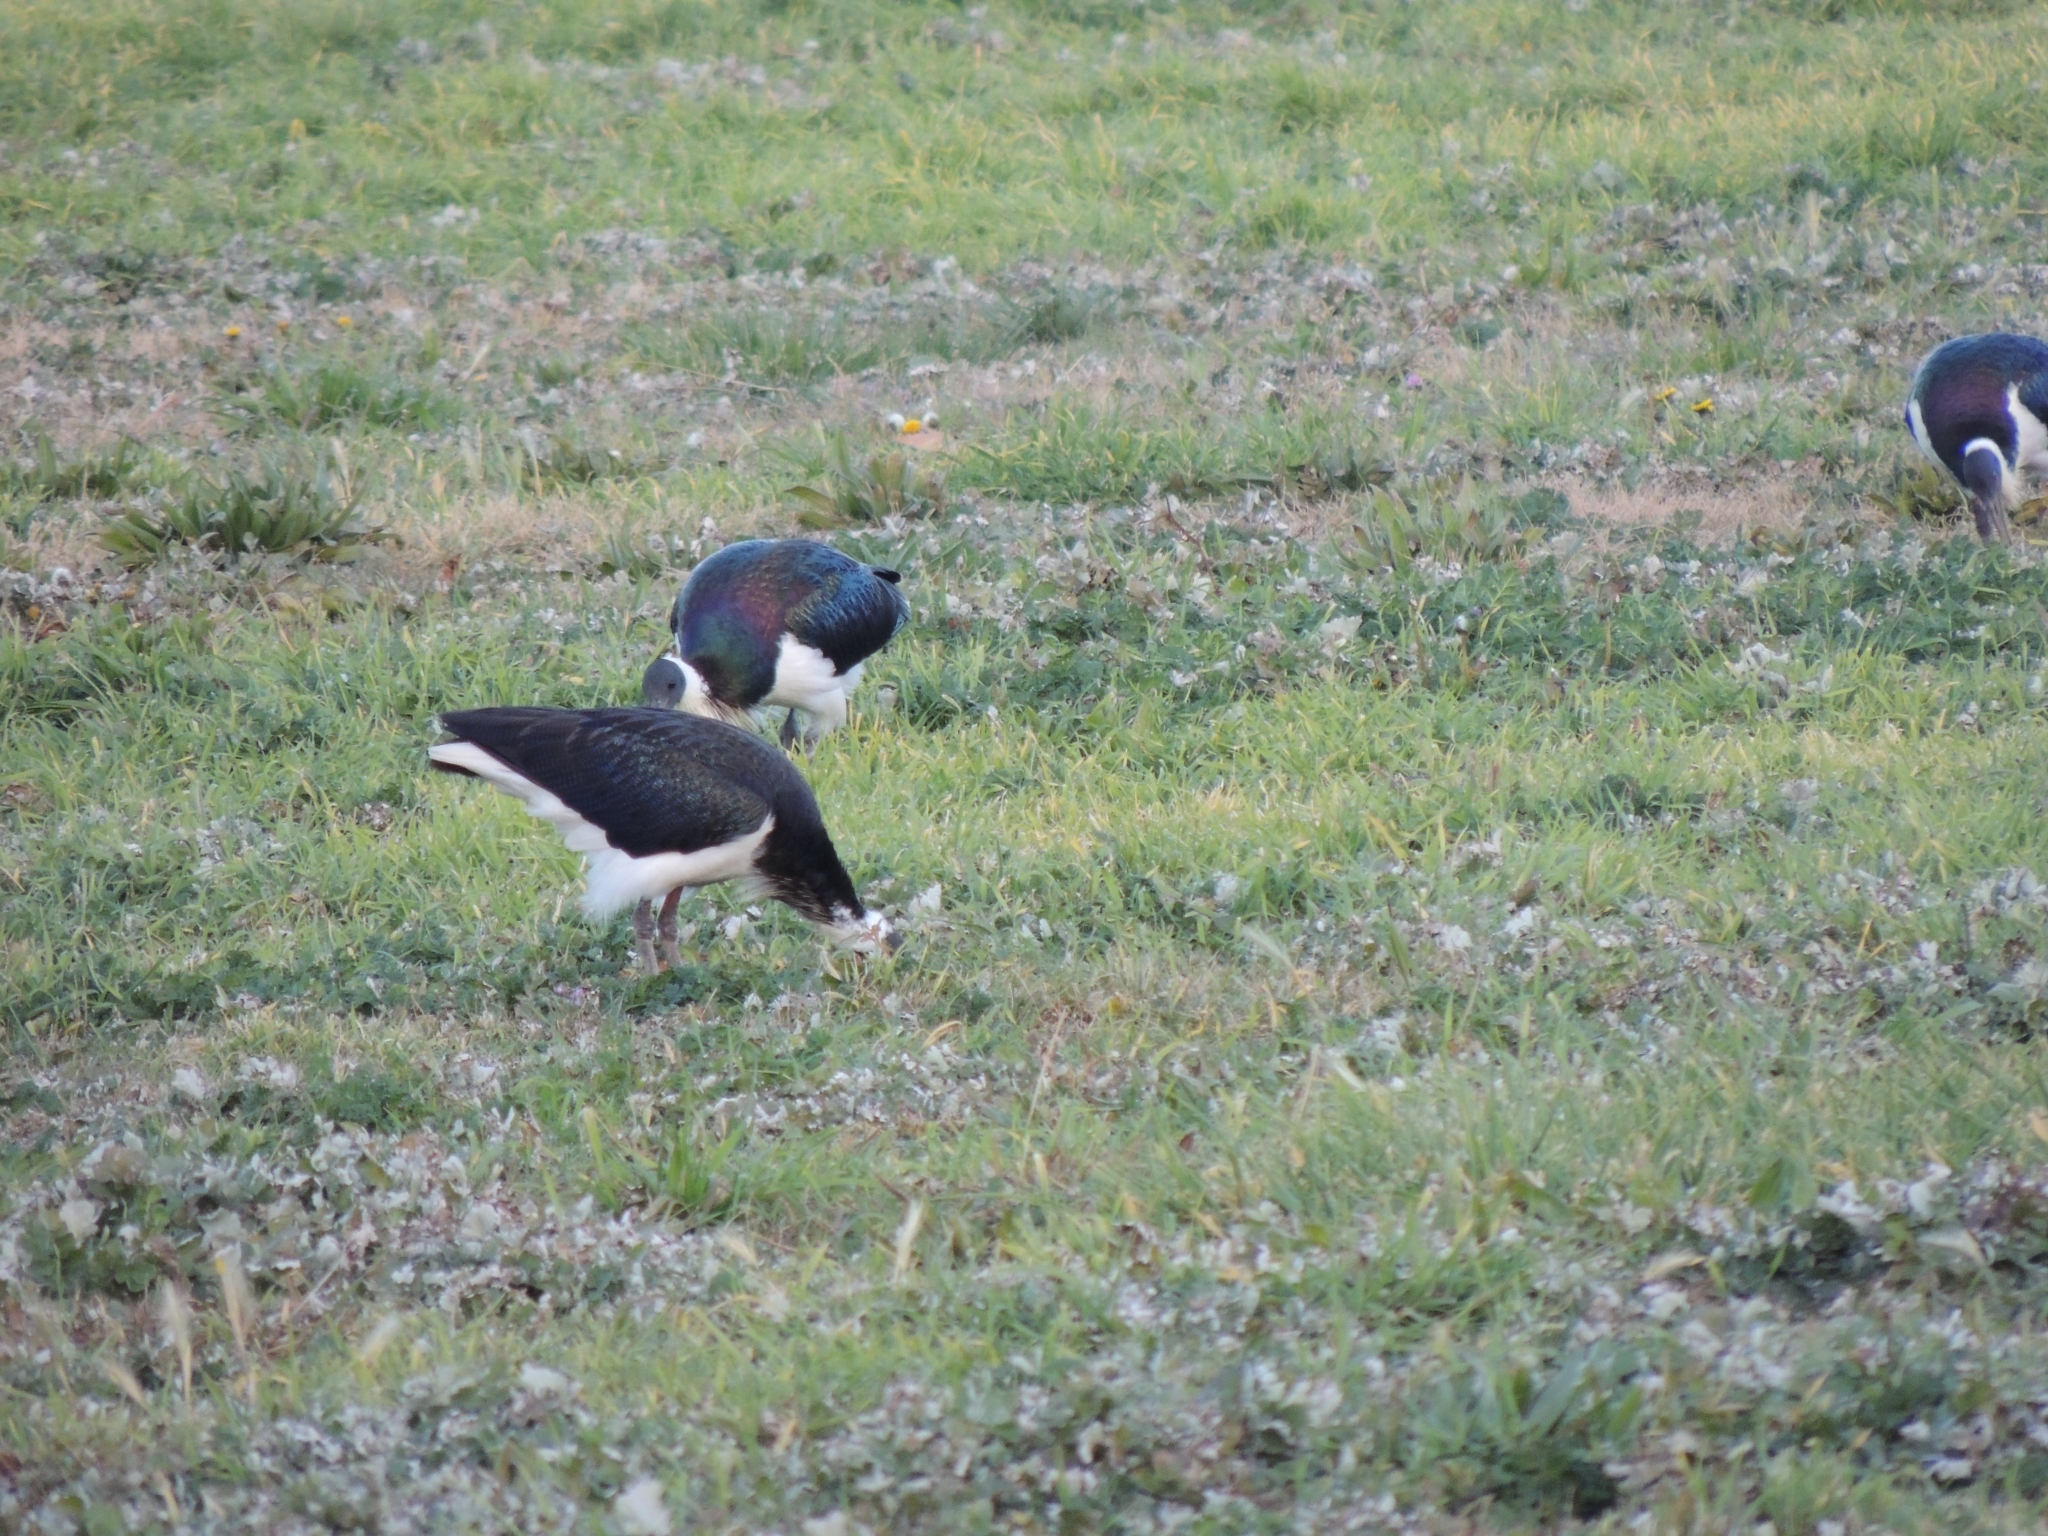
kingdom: Animalia
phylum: Chordata
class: Aves
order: Pelecaniformes
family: Threskiornithidae
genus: Threskiornis
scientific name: Threskiornis spinicollis
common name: Straw-necked ibis
